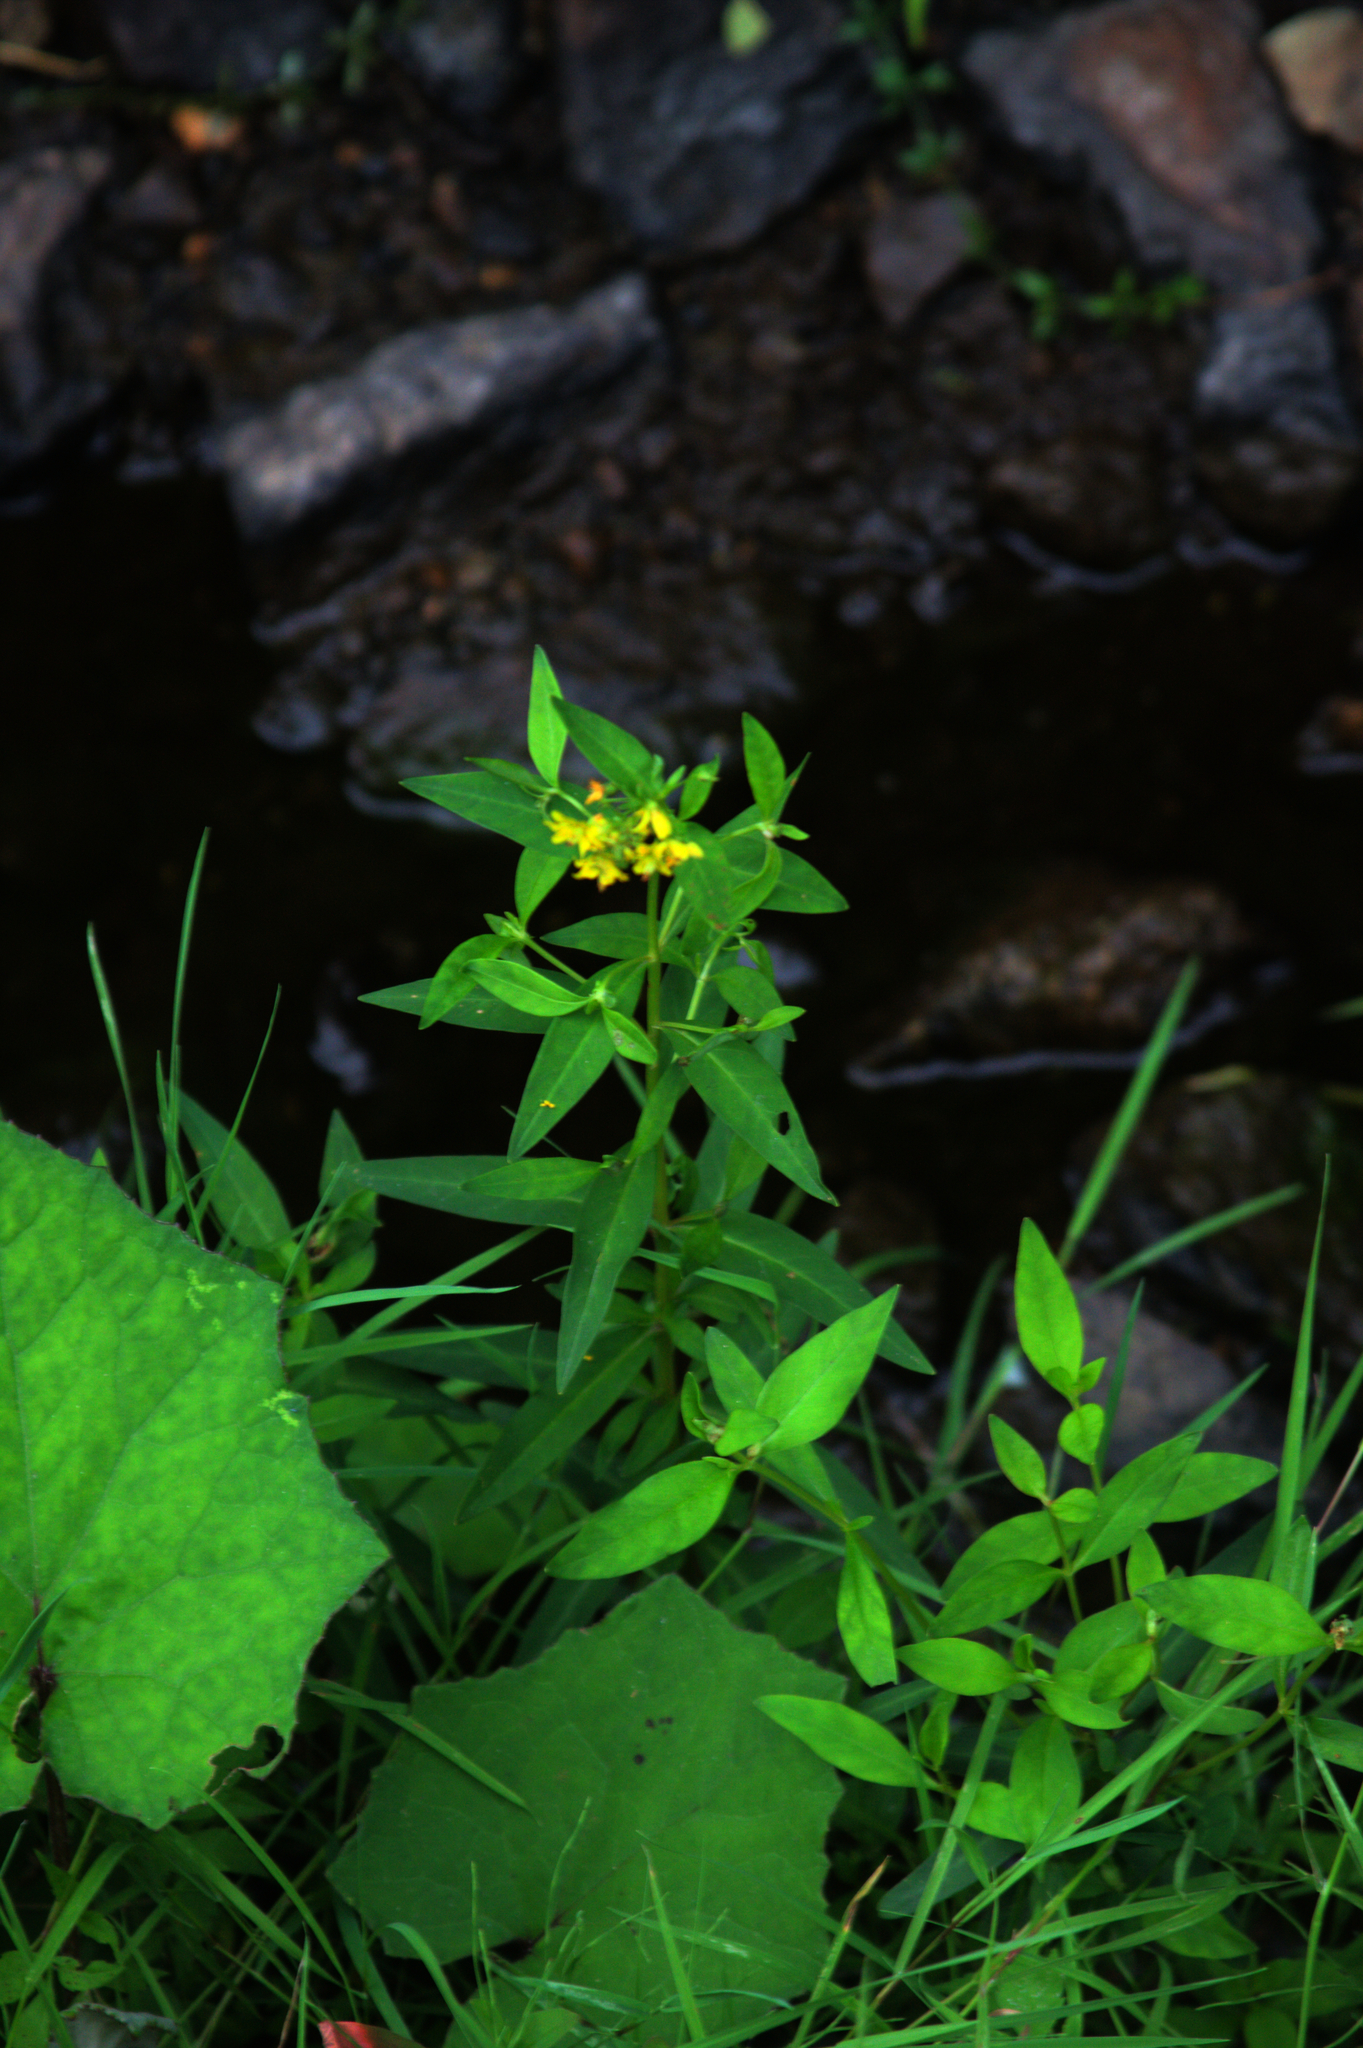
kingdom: Plantae
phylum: Tracheophyta
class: Magnoliopsida
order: Ericales
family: Primulaceae
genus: Lysimachia
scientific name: Lysimachia terrestris
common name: Lake loosestrife
